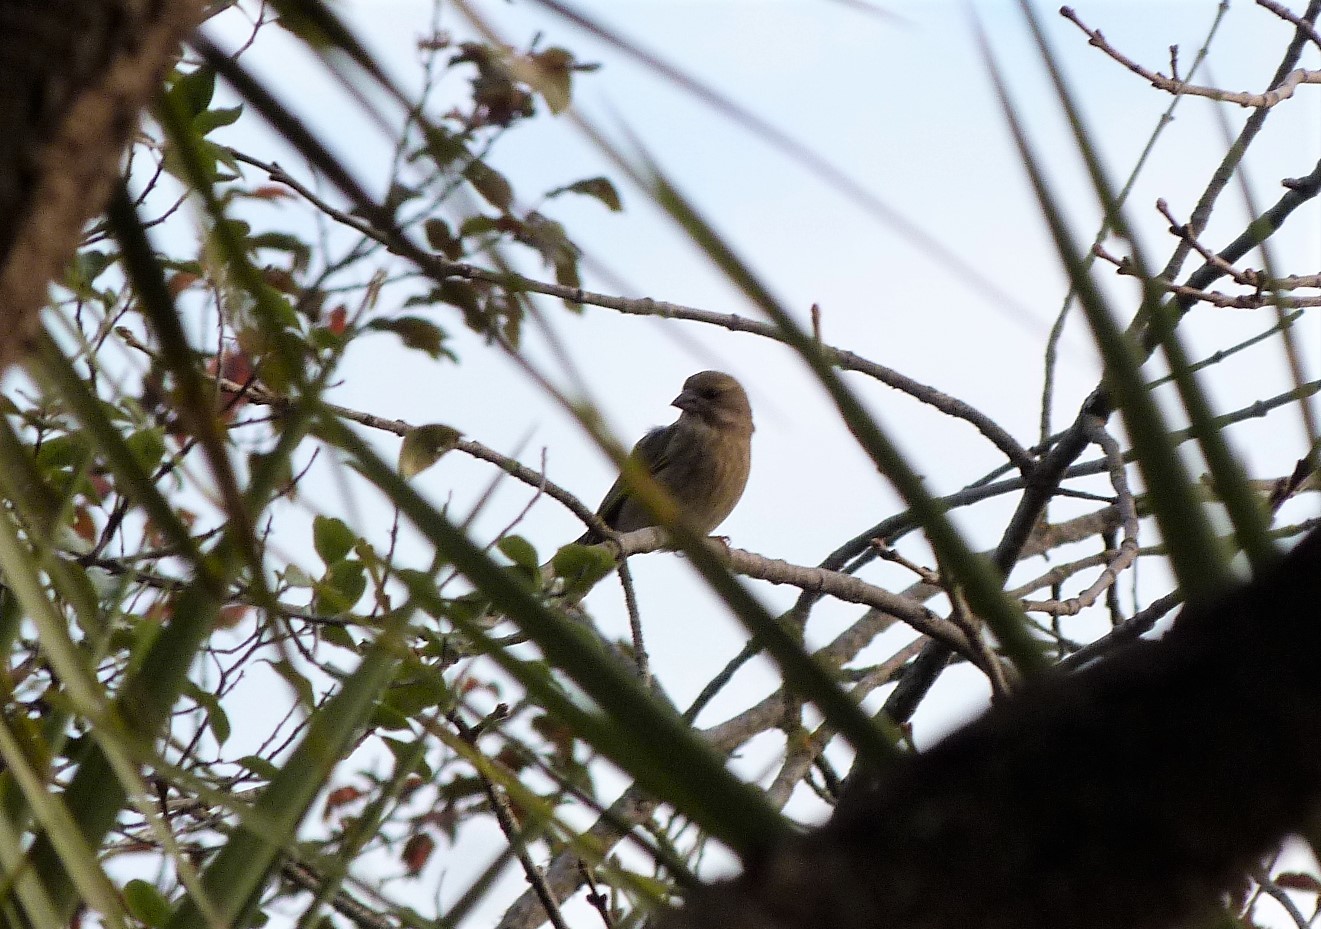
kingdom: Animalia
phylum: Chordata
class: Aves
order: Passeriformes
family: Passeridae
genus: Passer
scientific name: Passer domesticus
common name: House sparrow
